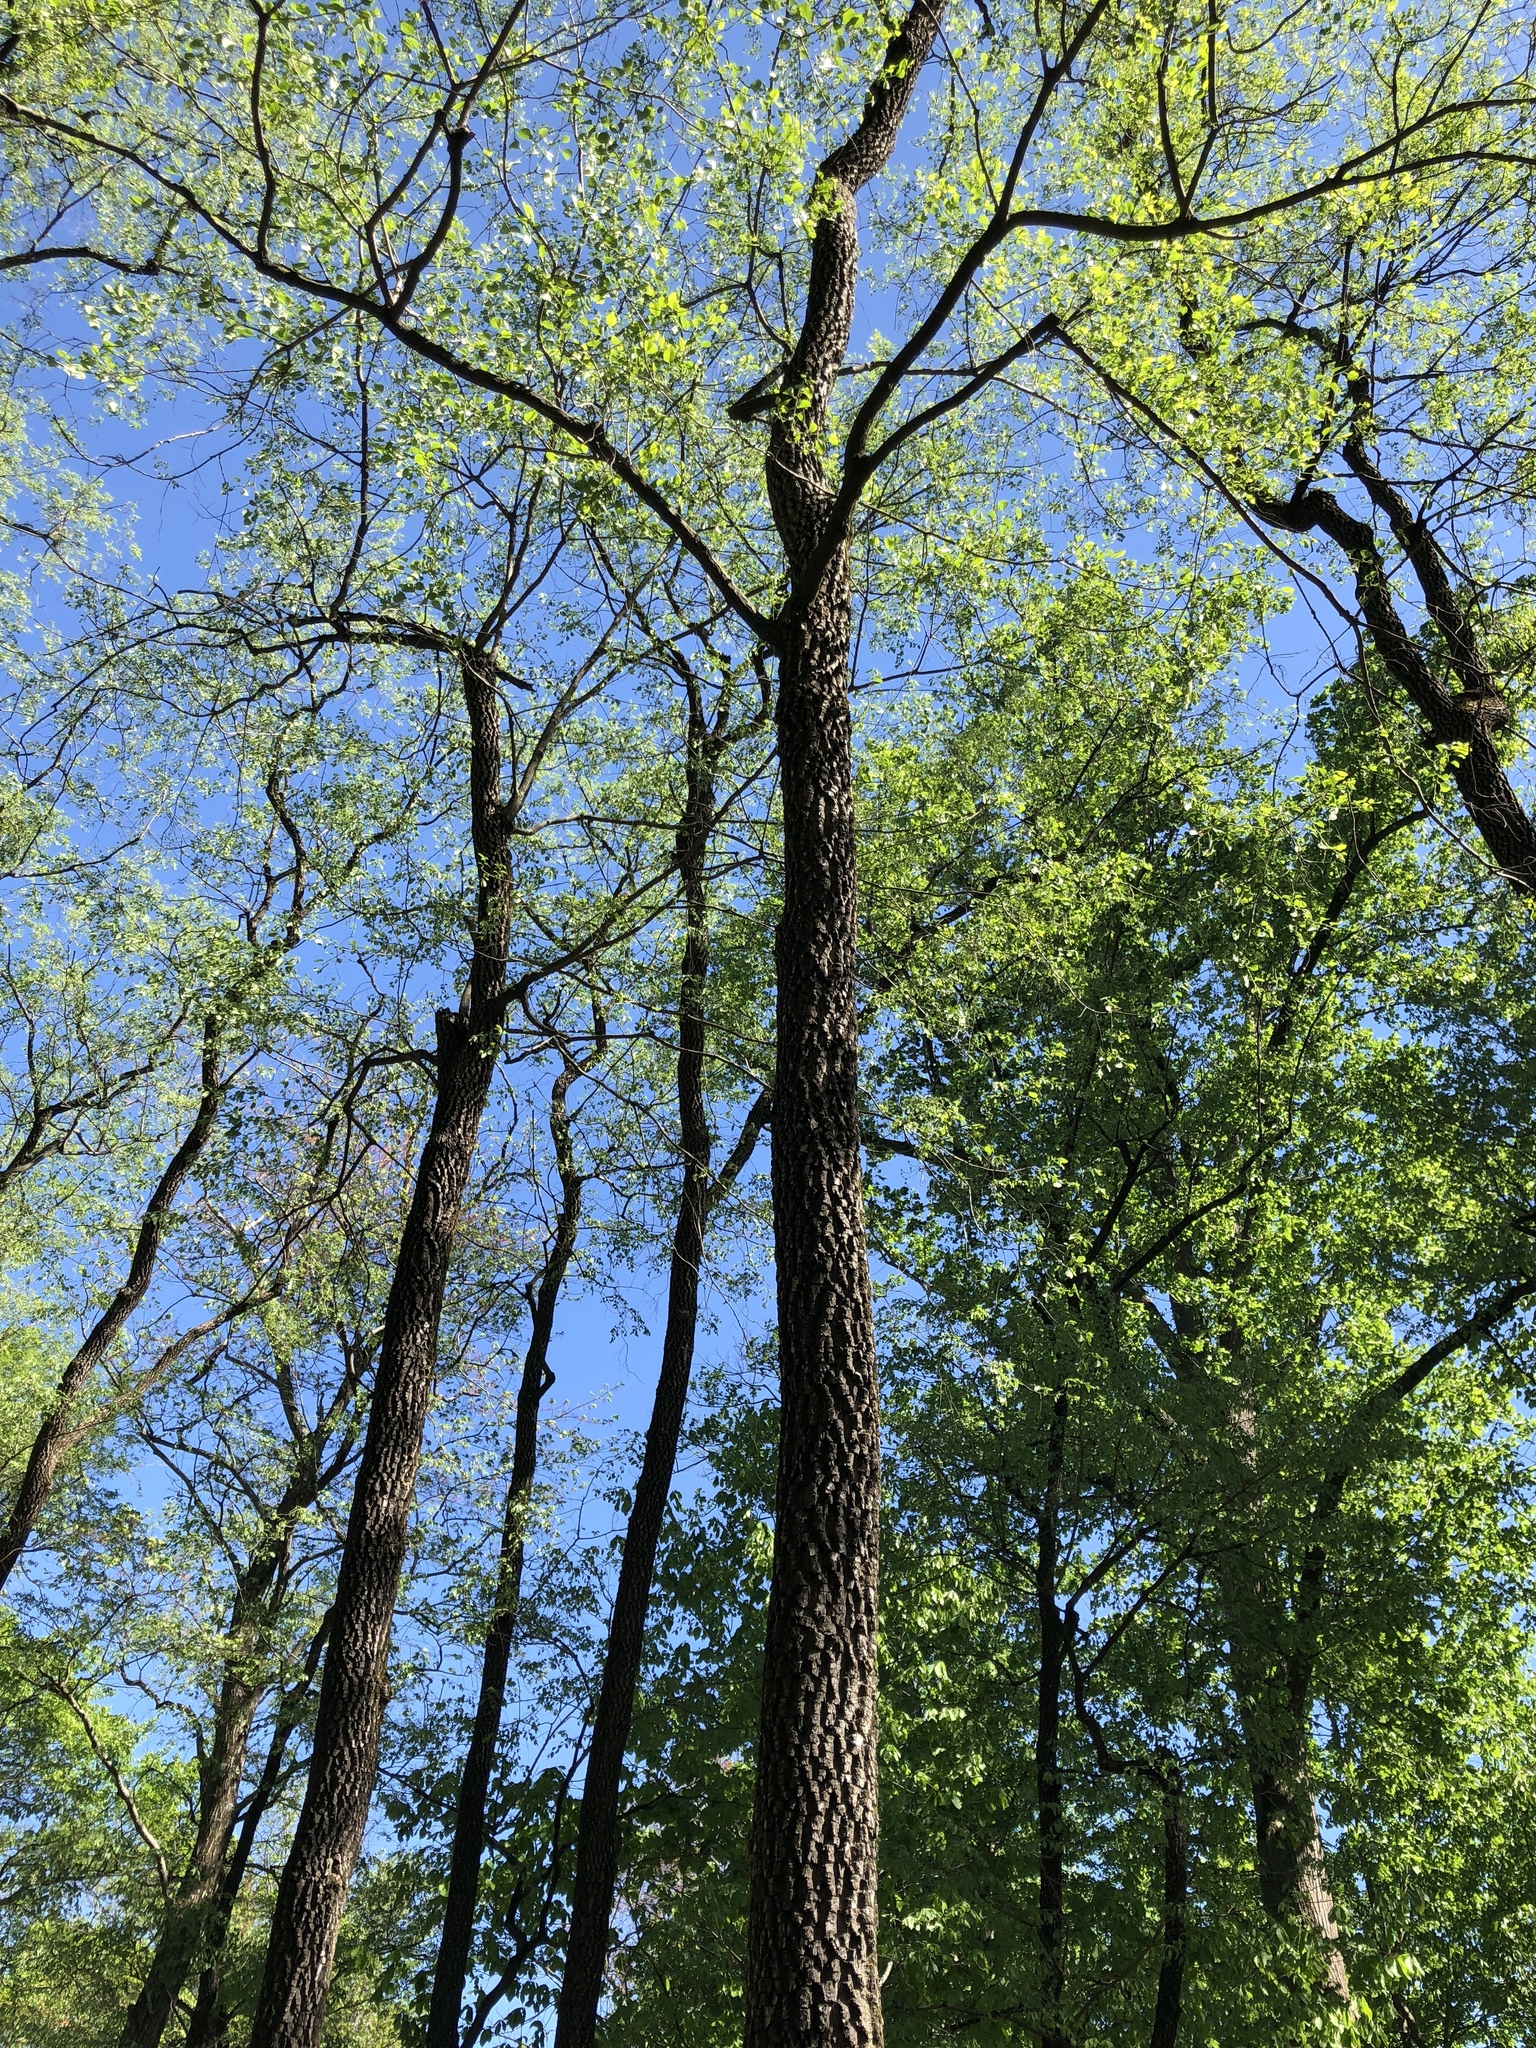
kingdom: Plantae
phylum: Tracheophyta
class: Magnoliopsida
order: Ericales
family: Ebenaceae
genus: Diospyros
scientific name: Diospyros virginiana
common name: Persimmon
